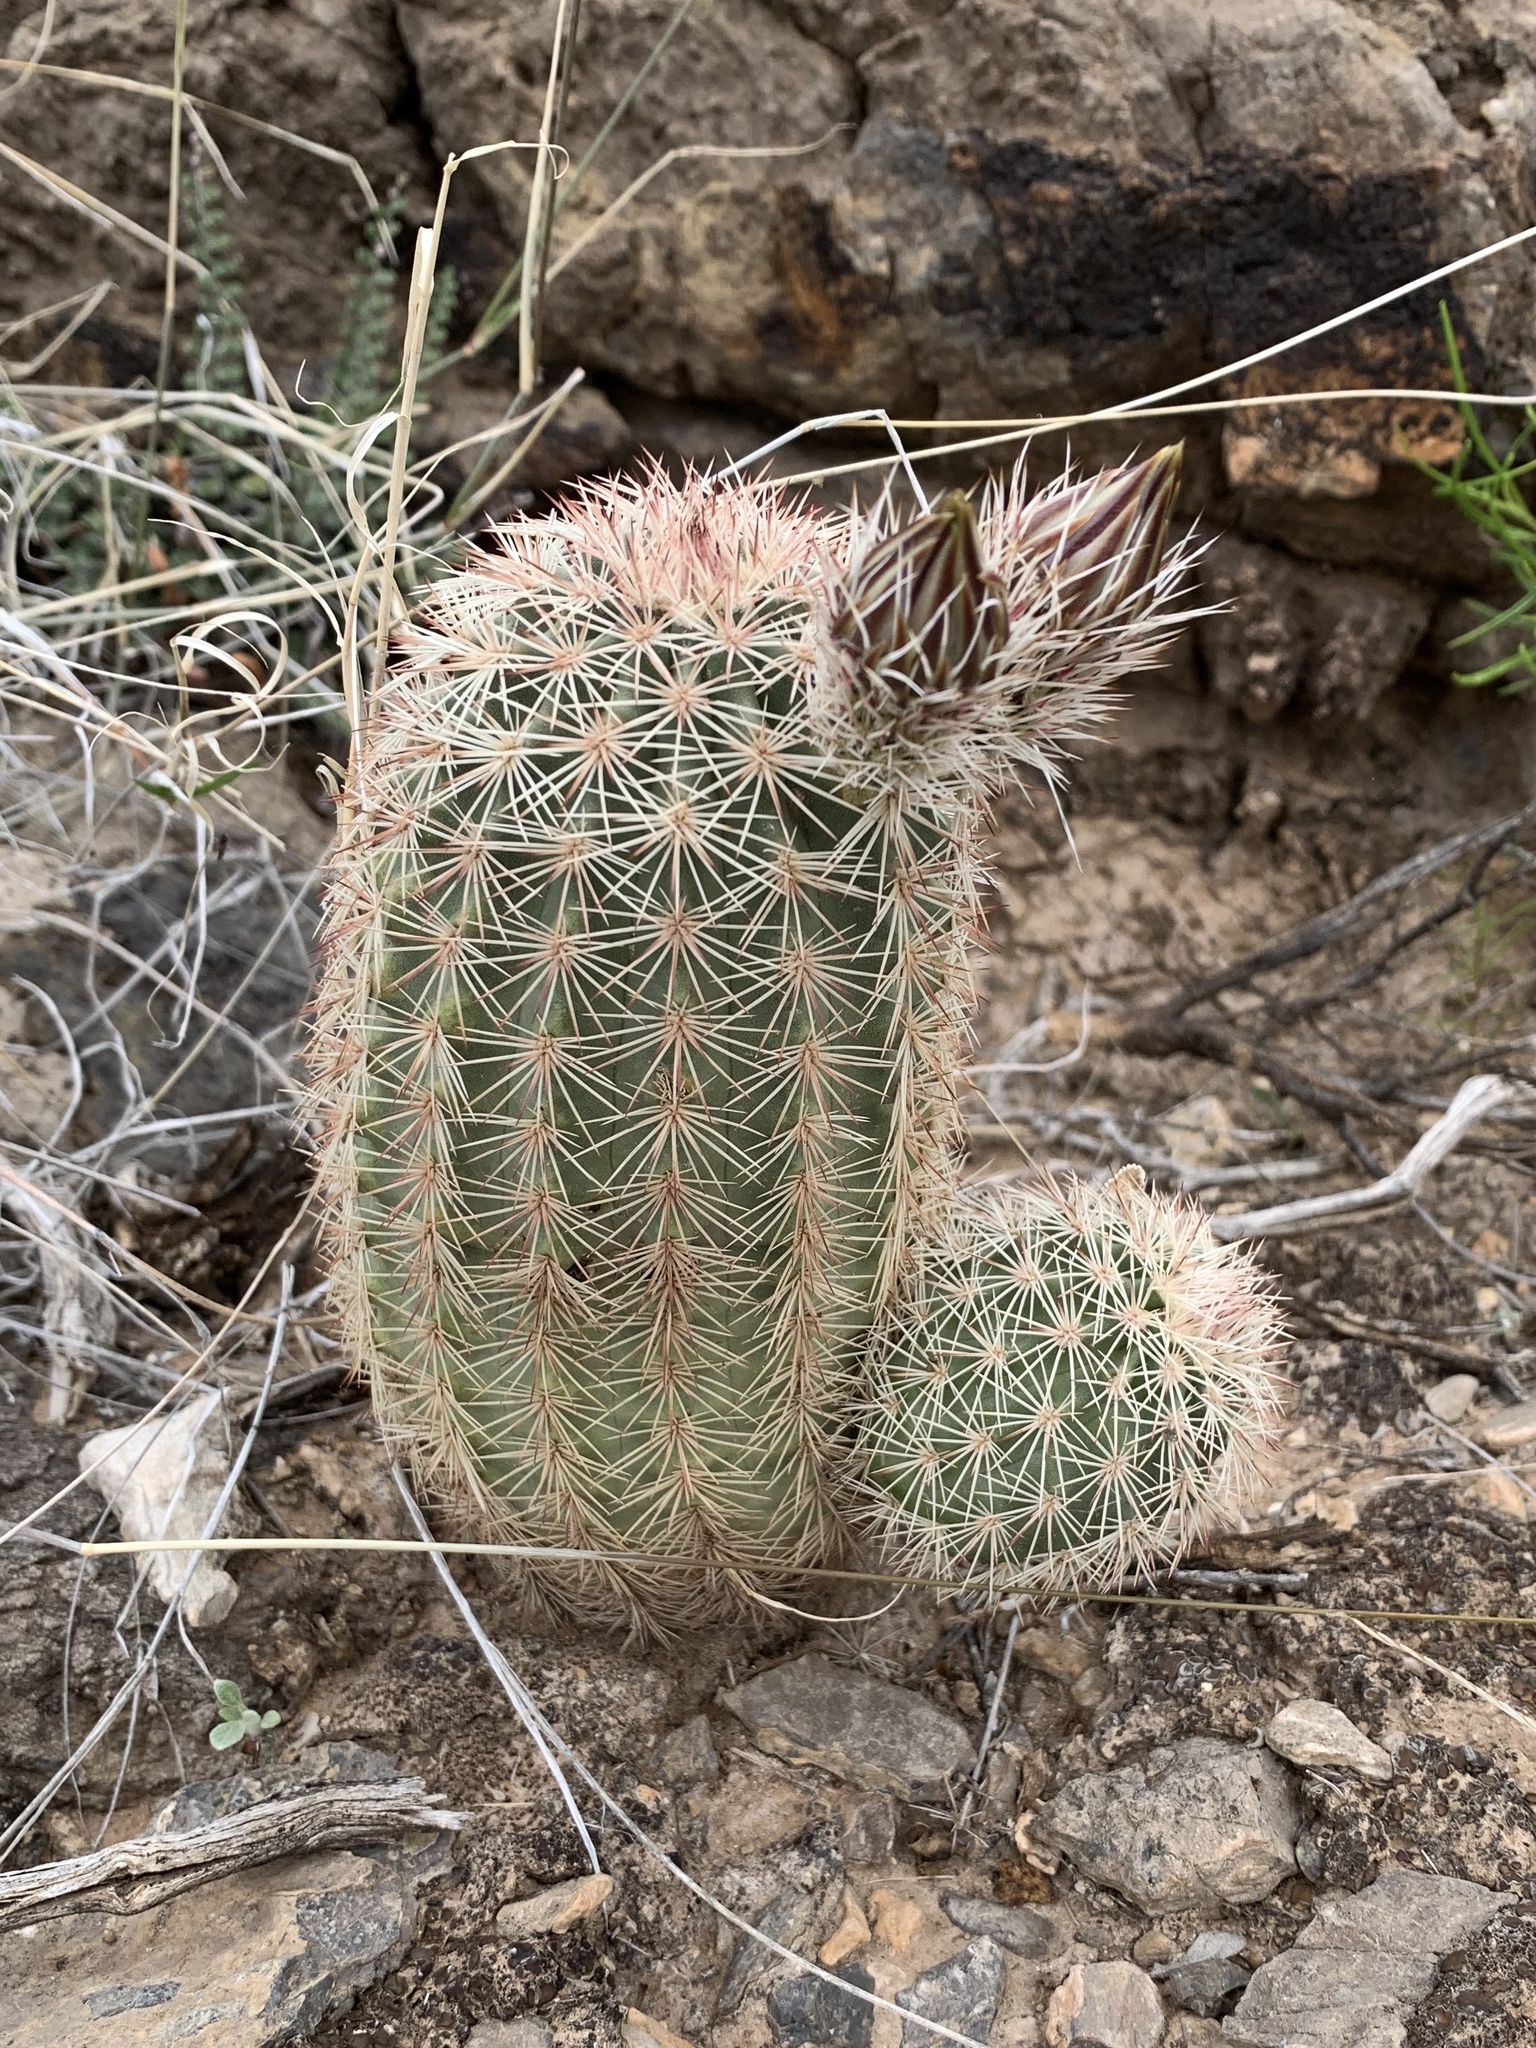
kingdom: Plantae
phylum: Tracheophyta
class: Magnoliopsida
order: Caryophyllales
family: Cactaceae
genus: Echinocereus
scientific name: Echinocereus dasyacanthus
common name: Spiny hedgehog cactus
